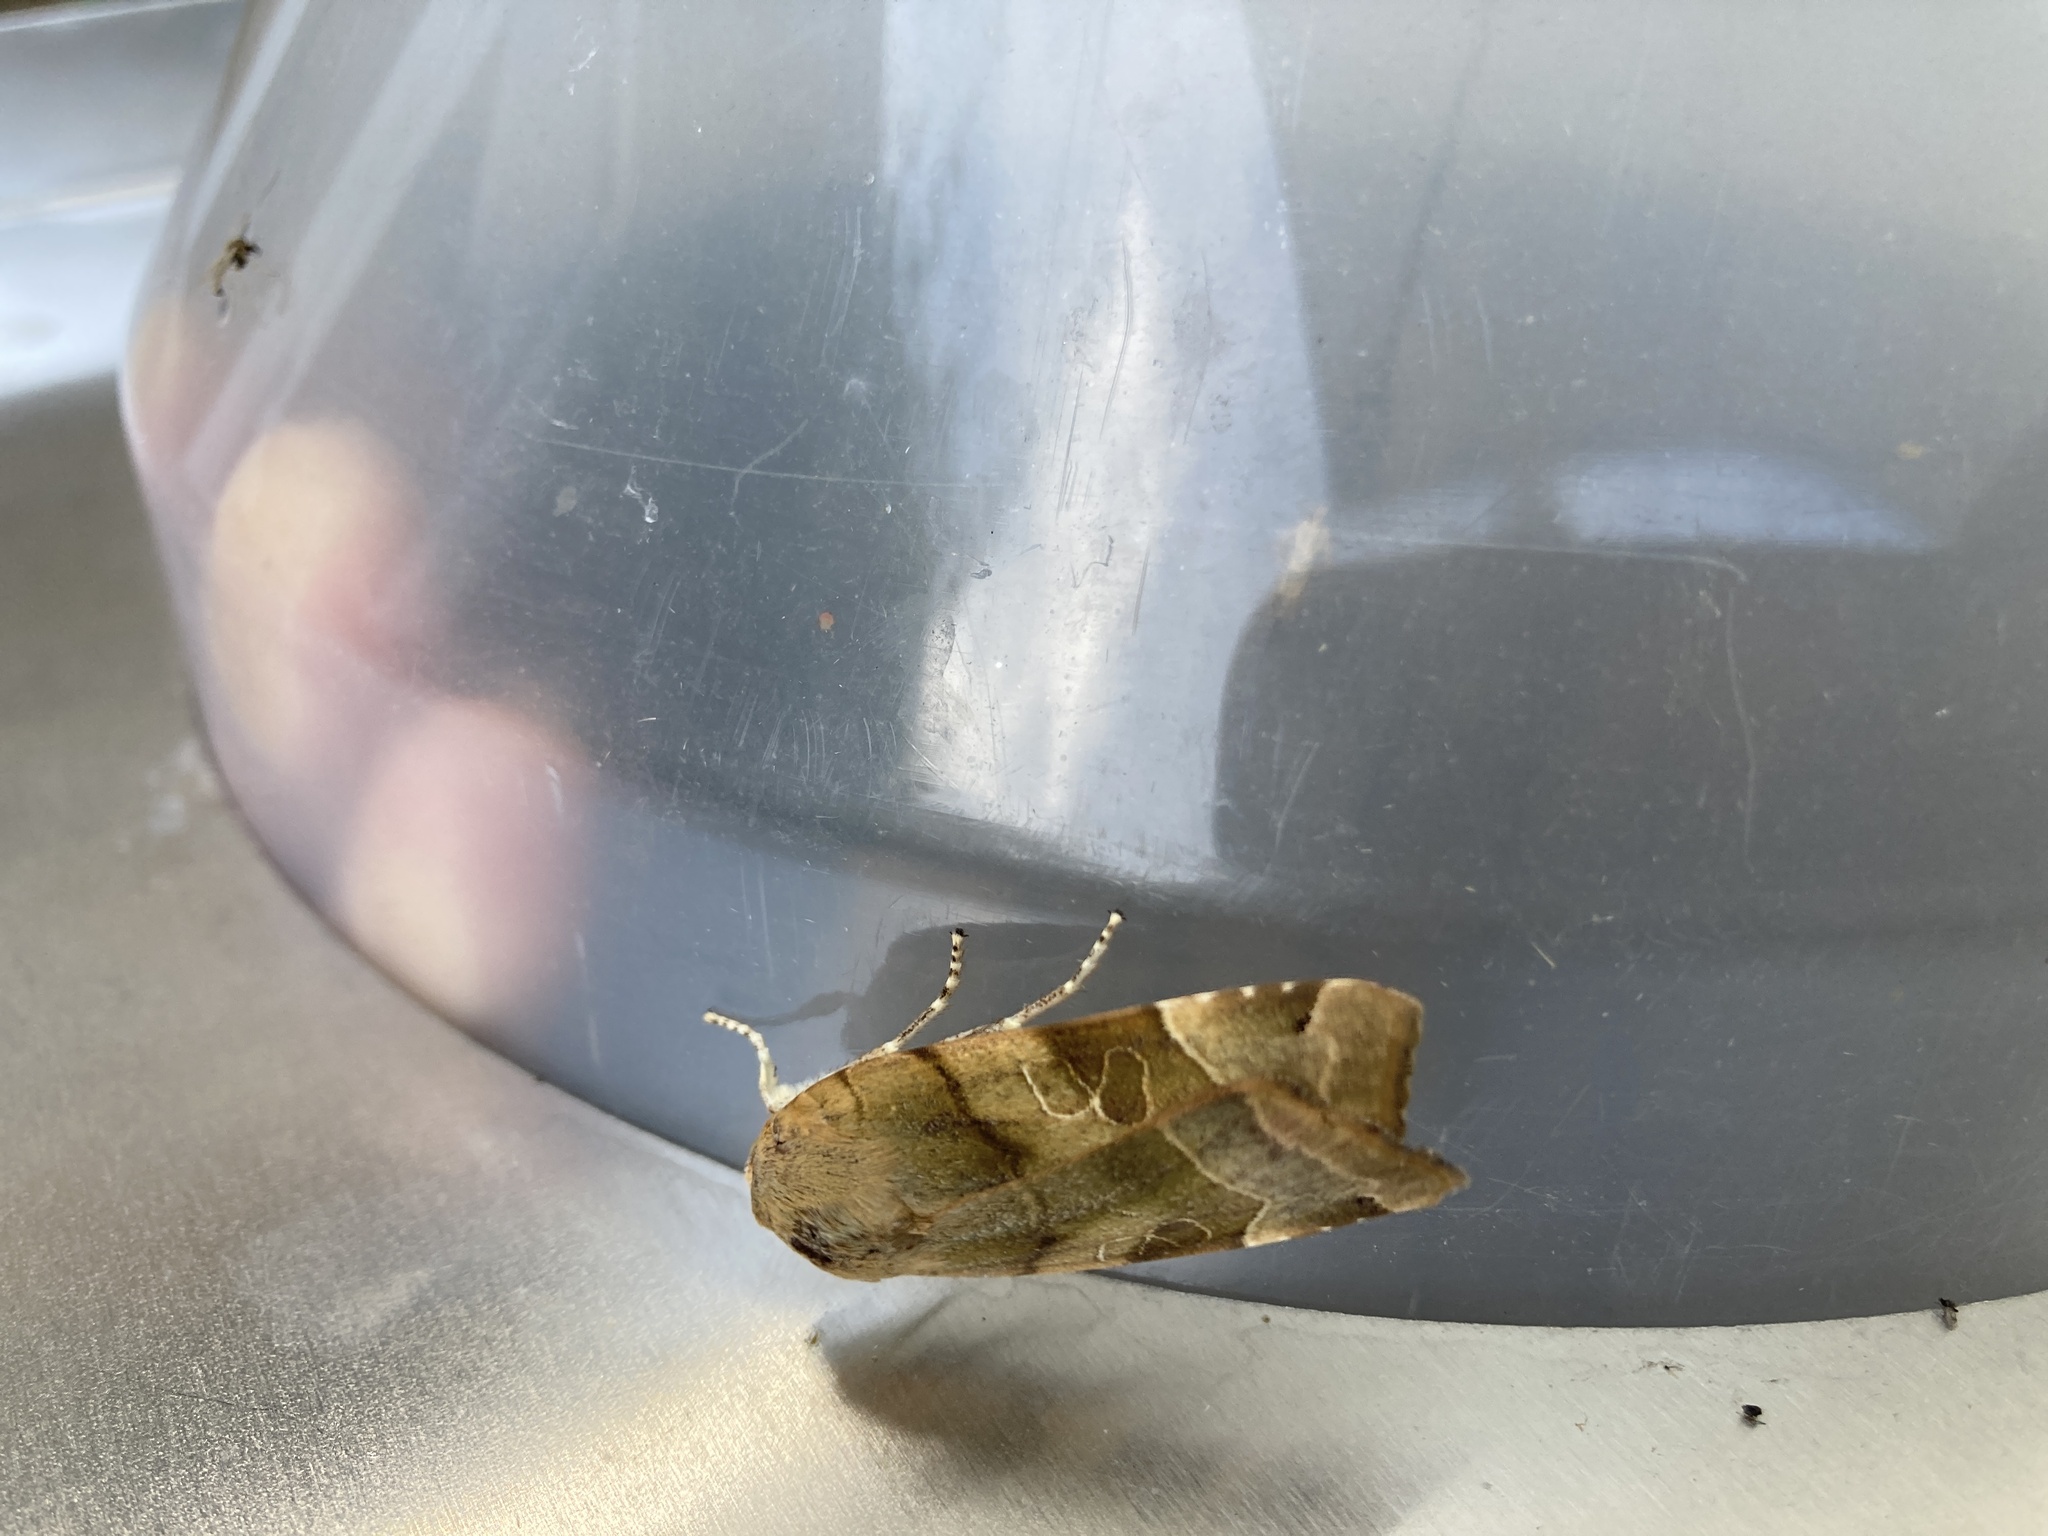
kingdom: Animalia
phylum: Arthropoda
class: Insecta
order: Lepidoptera
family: Noctuidae
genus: Noctua
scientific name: Noctua fimbriata
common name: Broad-bordered yellow underwing
